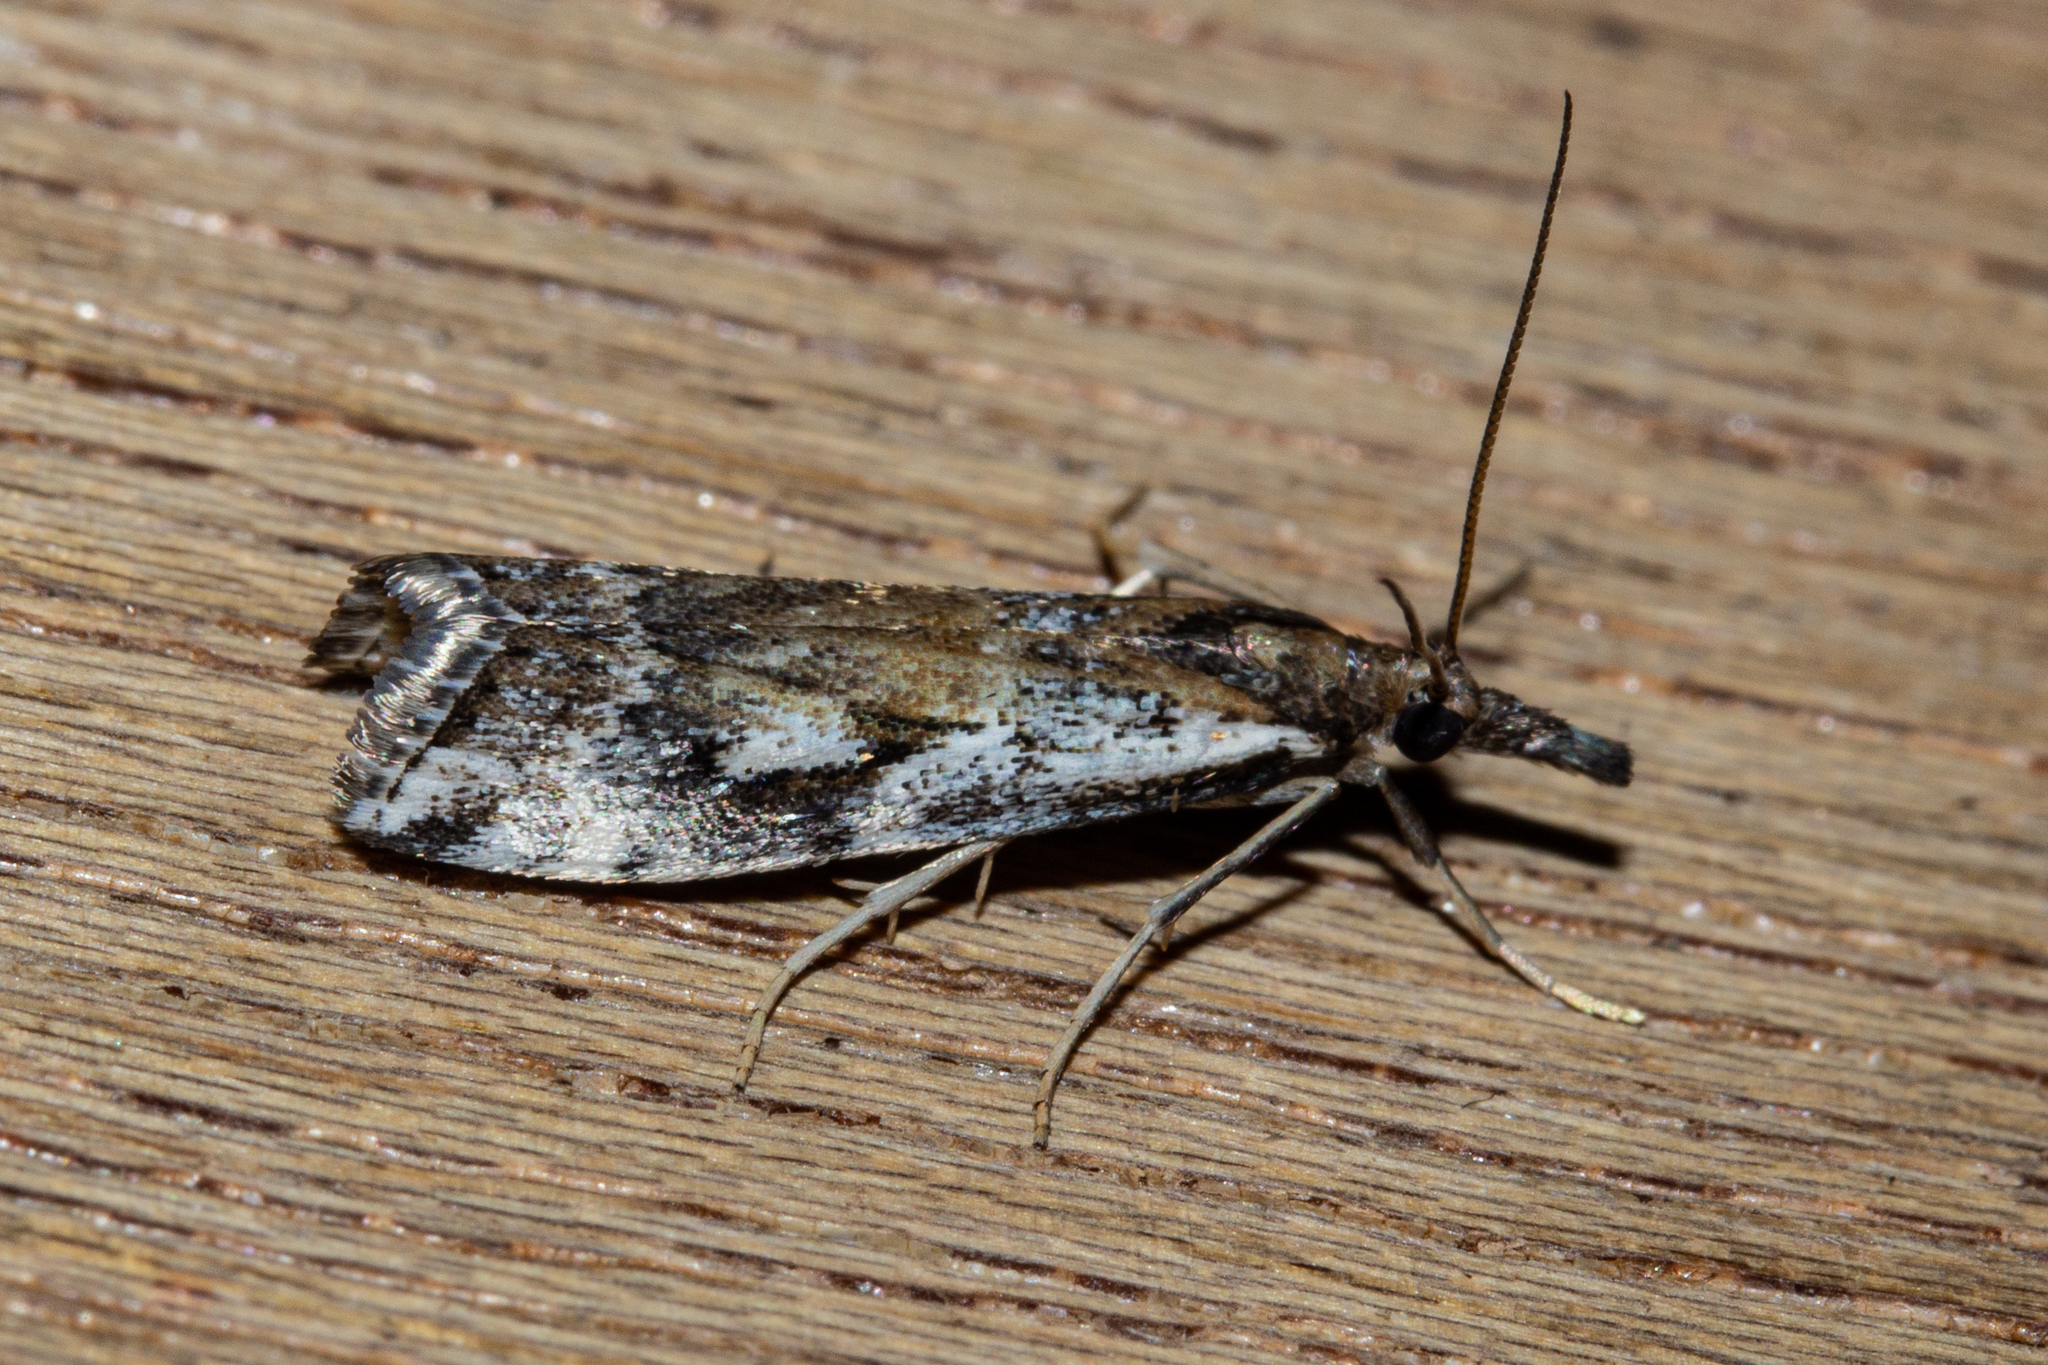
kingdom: Animalia
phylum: Arthropoda
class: Insecta
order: Lepidoptera
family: Crambidae
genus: Orocrambus
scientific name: Orocrambus vulgaris
